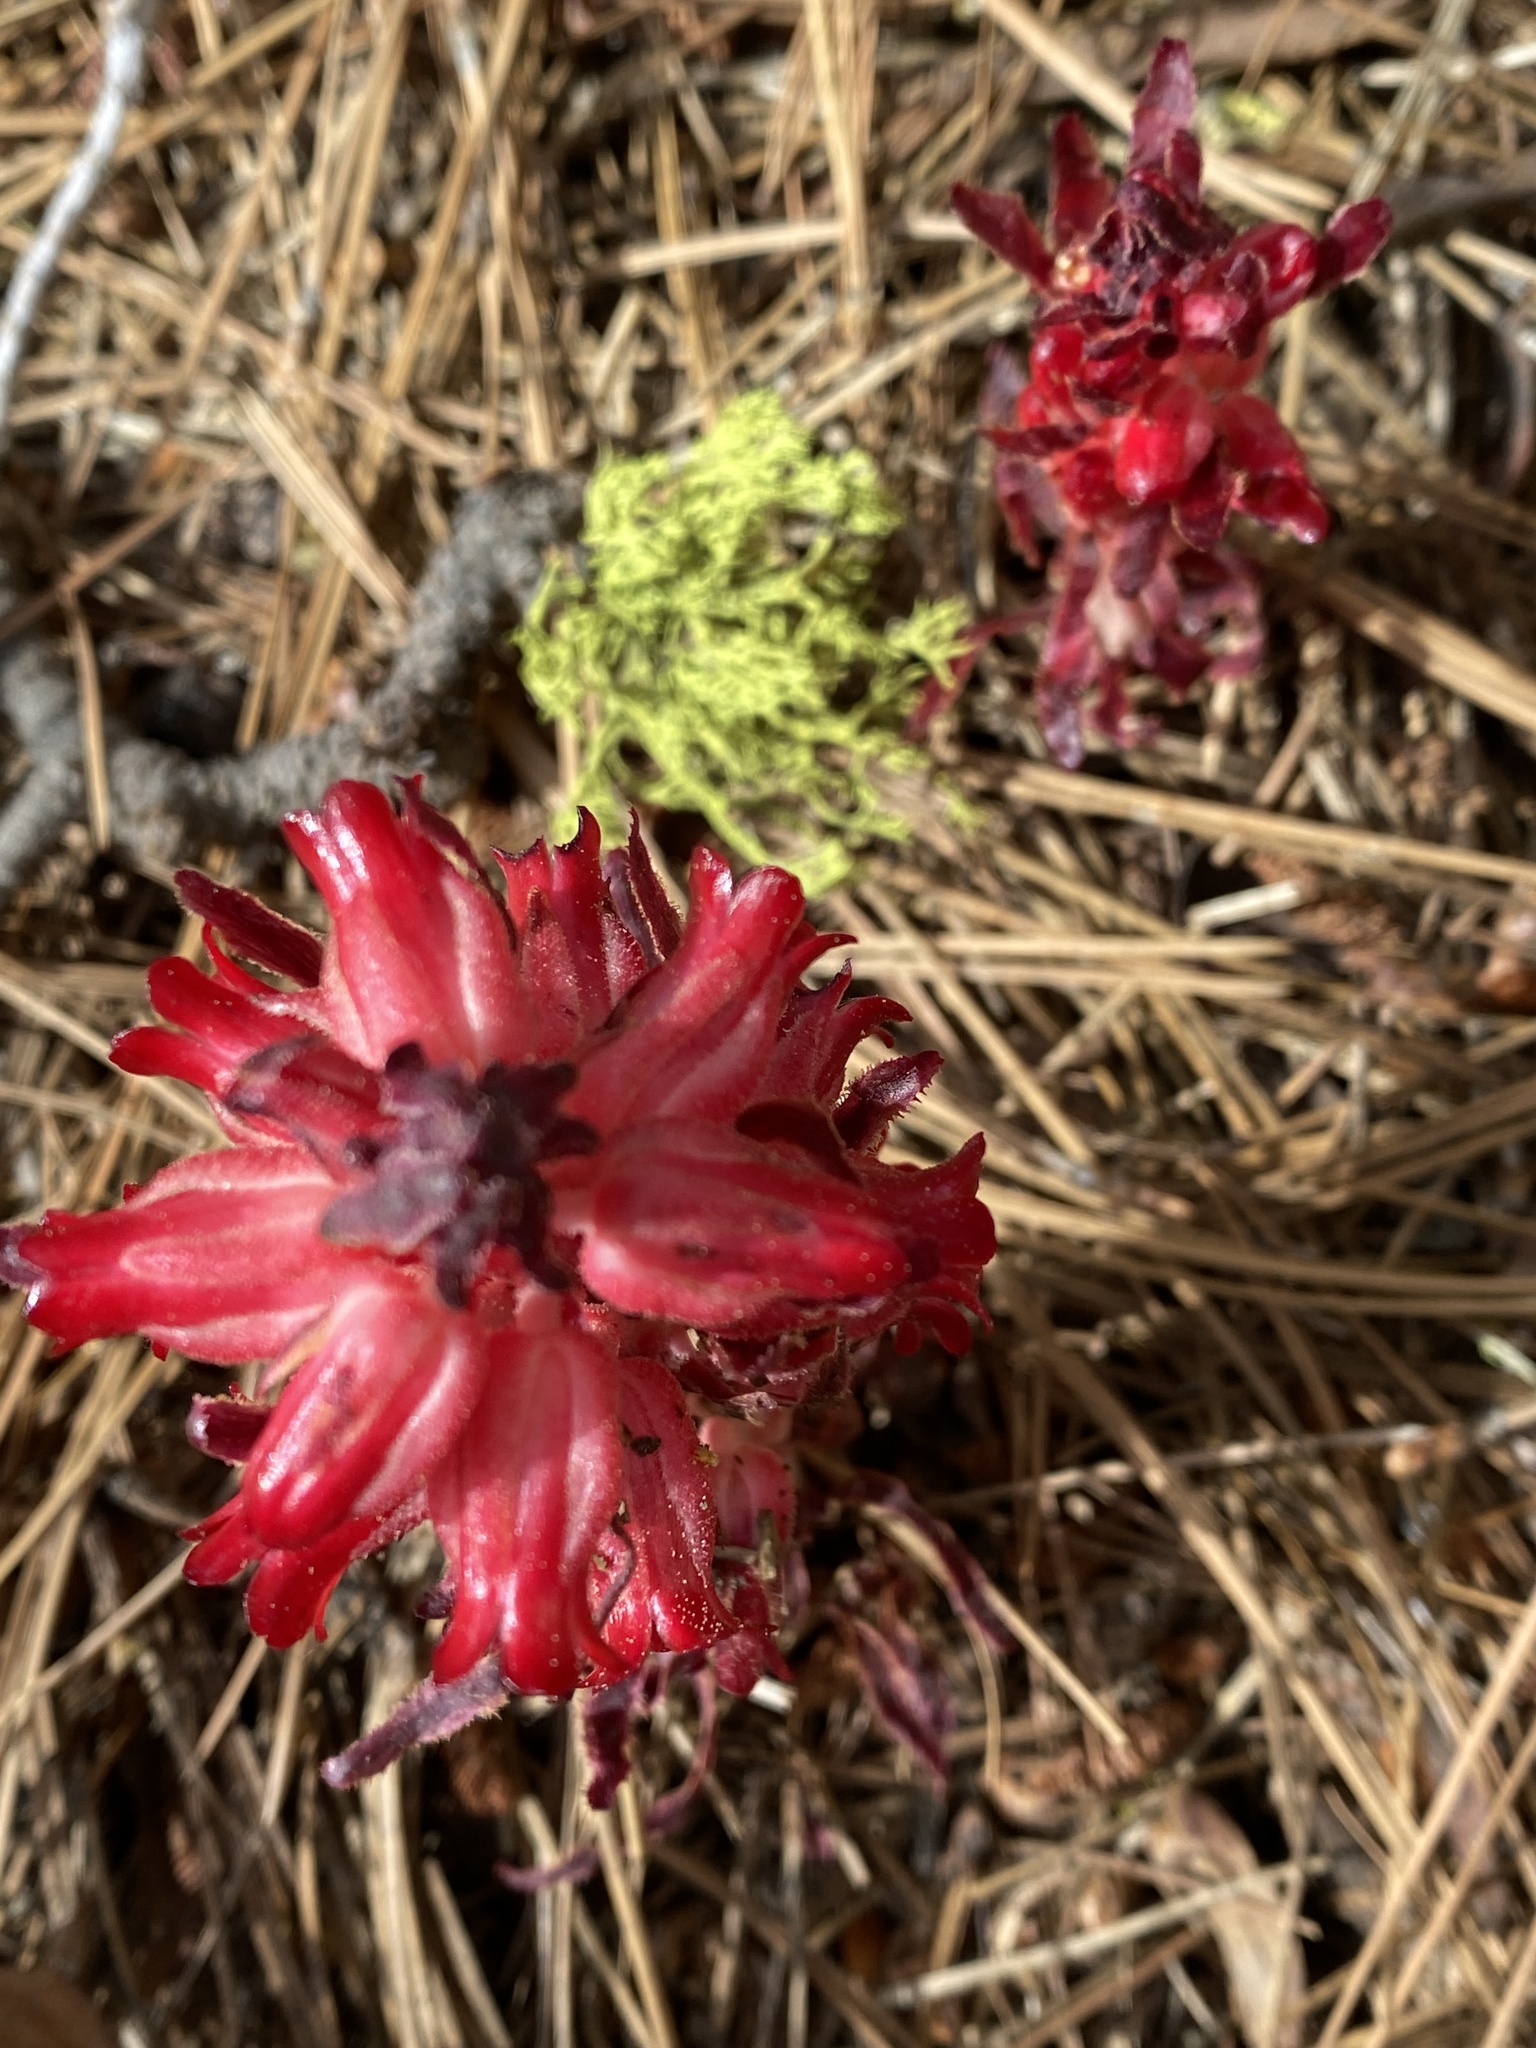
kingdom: Plantae
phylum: Tracheophyta
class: Magnoliopsida
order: Ericales
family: Ericaceae
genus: Sarcodes
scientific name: Sarcodes sanguinea
